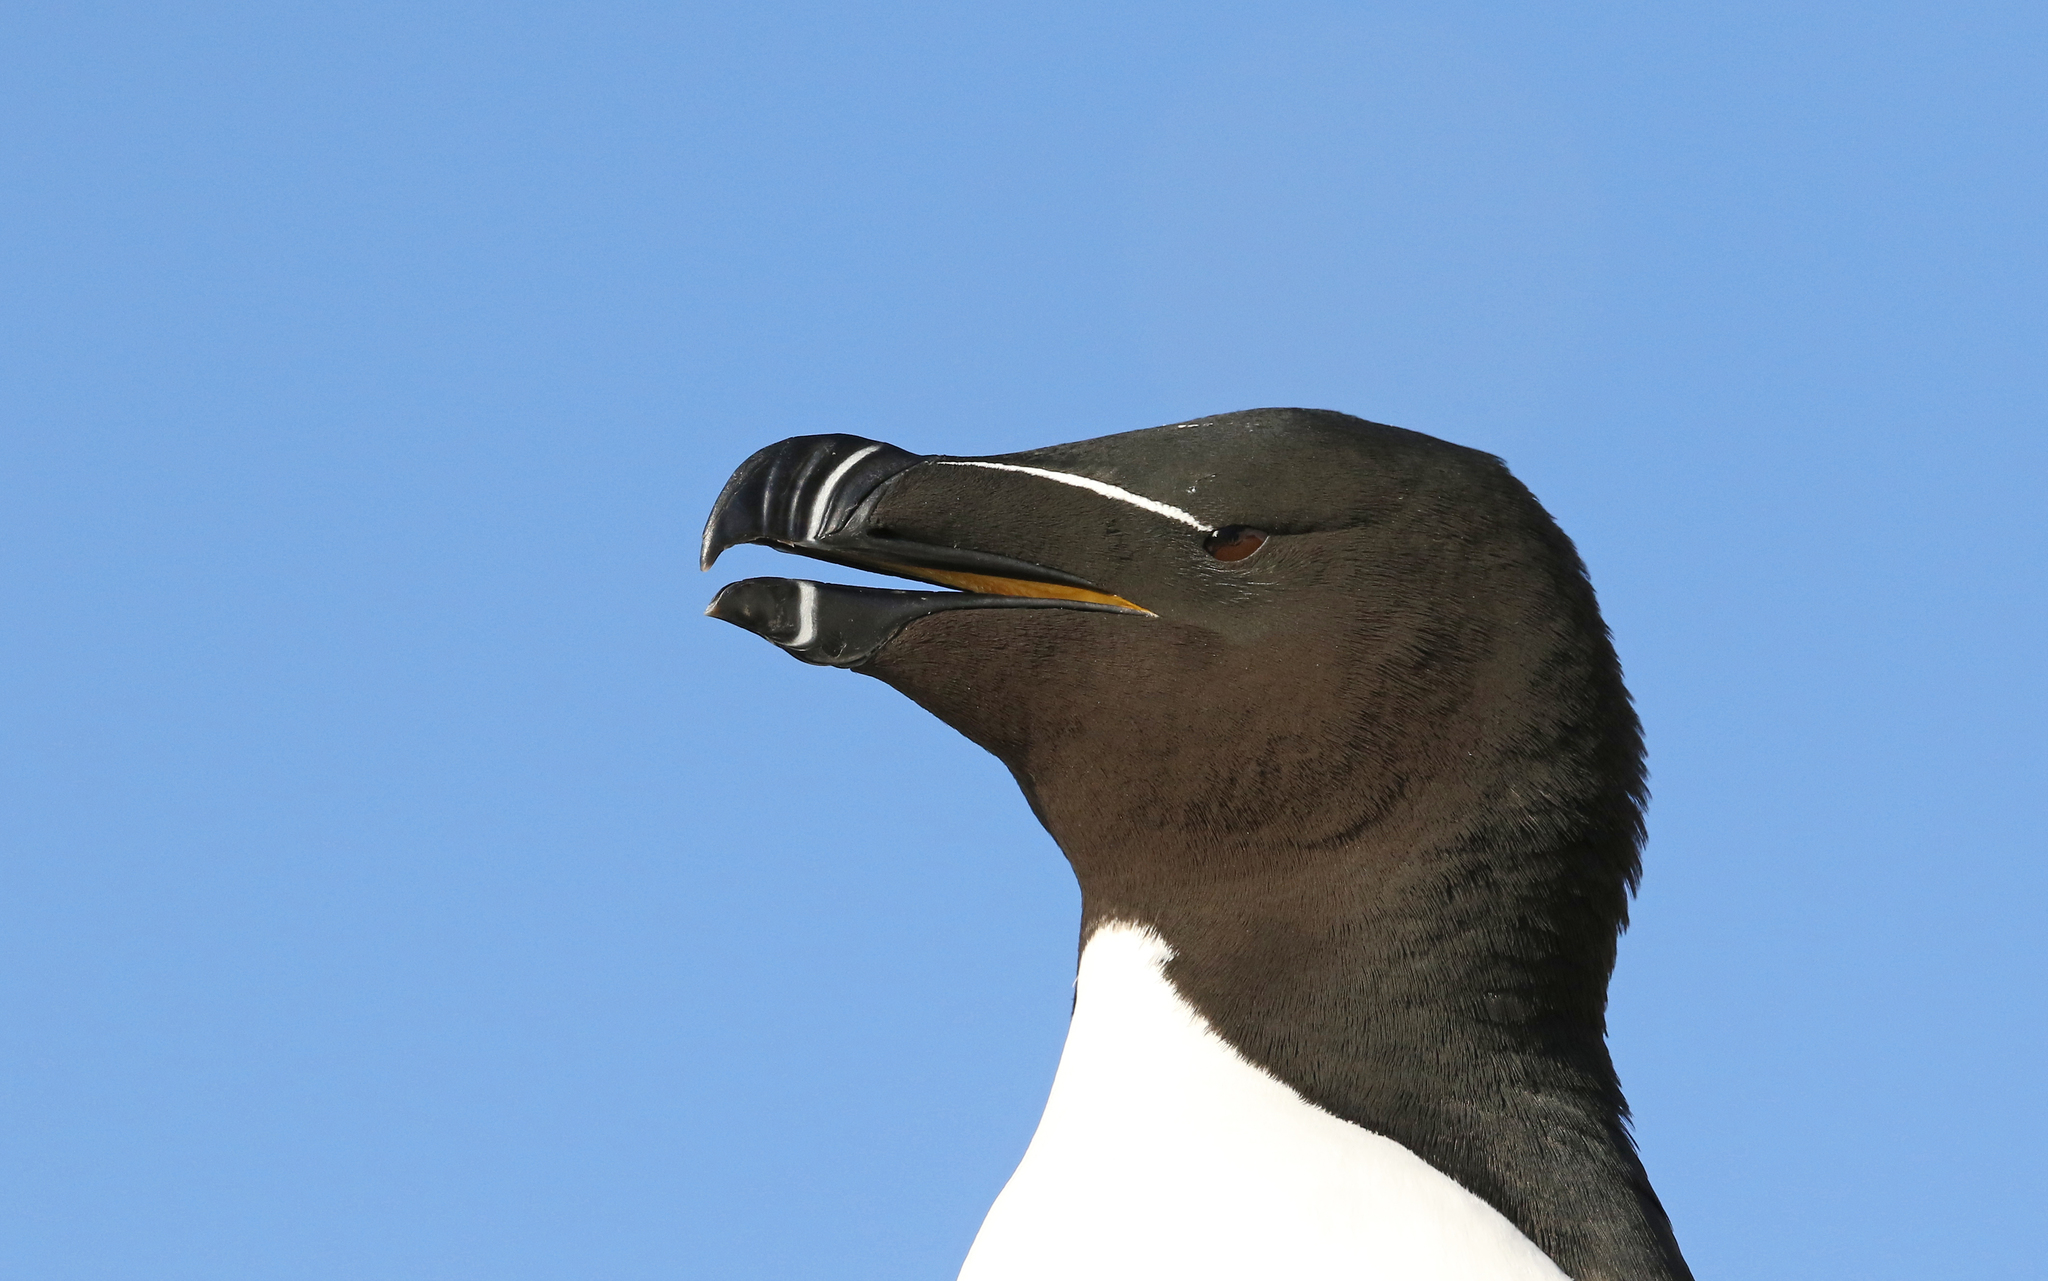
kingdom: Animalia
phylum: Chordata
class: Aves
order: Charadriiformes
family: Alcidae
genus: Alca
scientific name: Alca torda
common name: Razorbill
